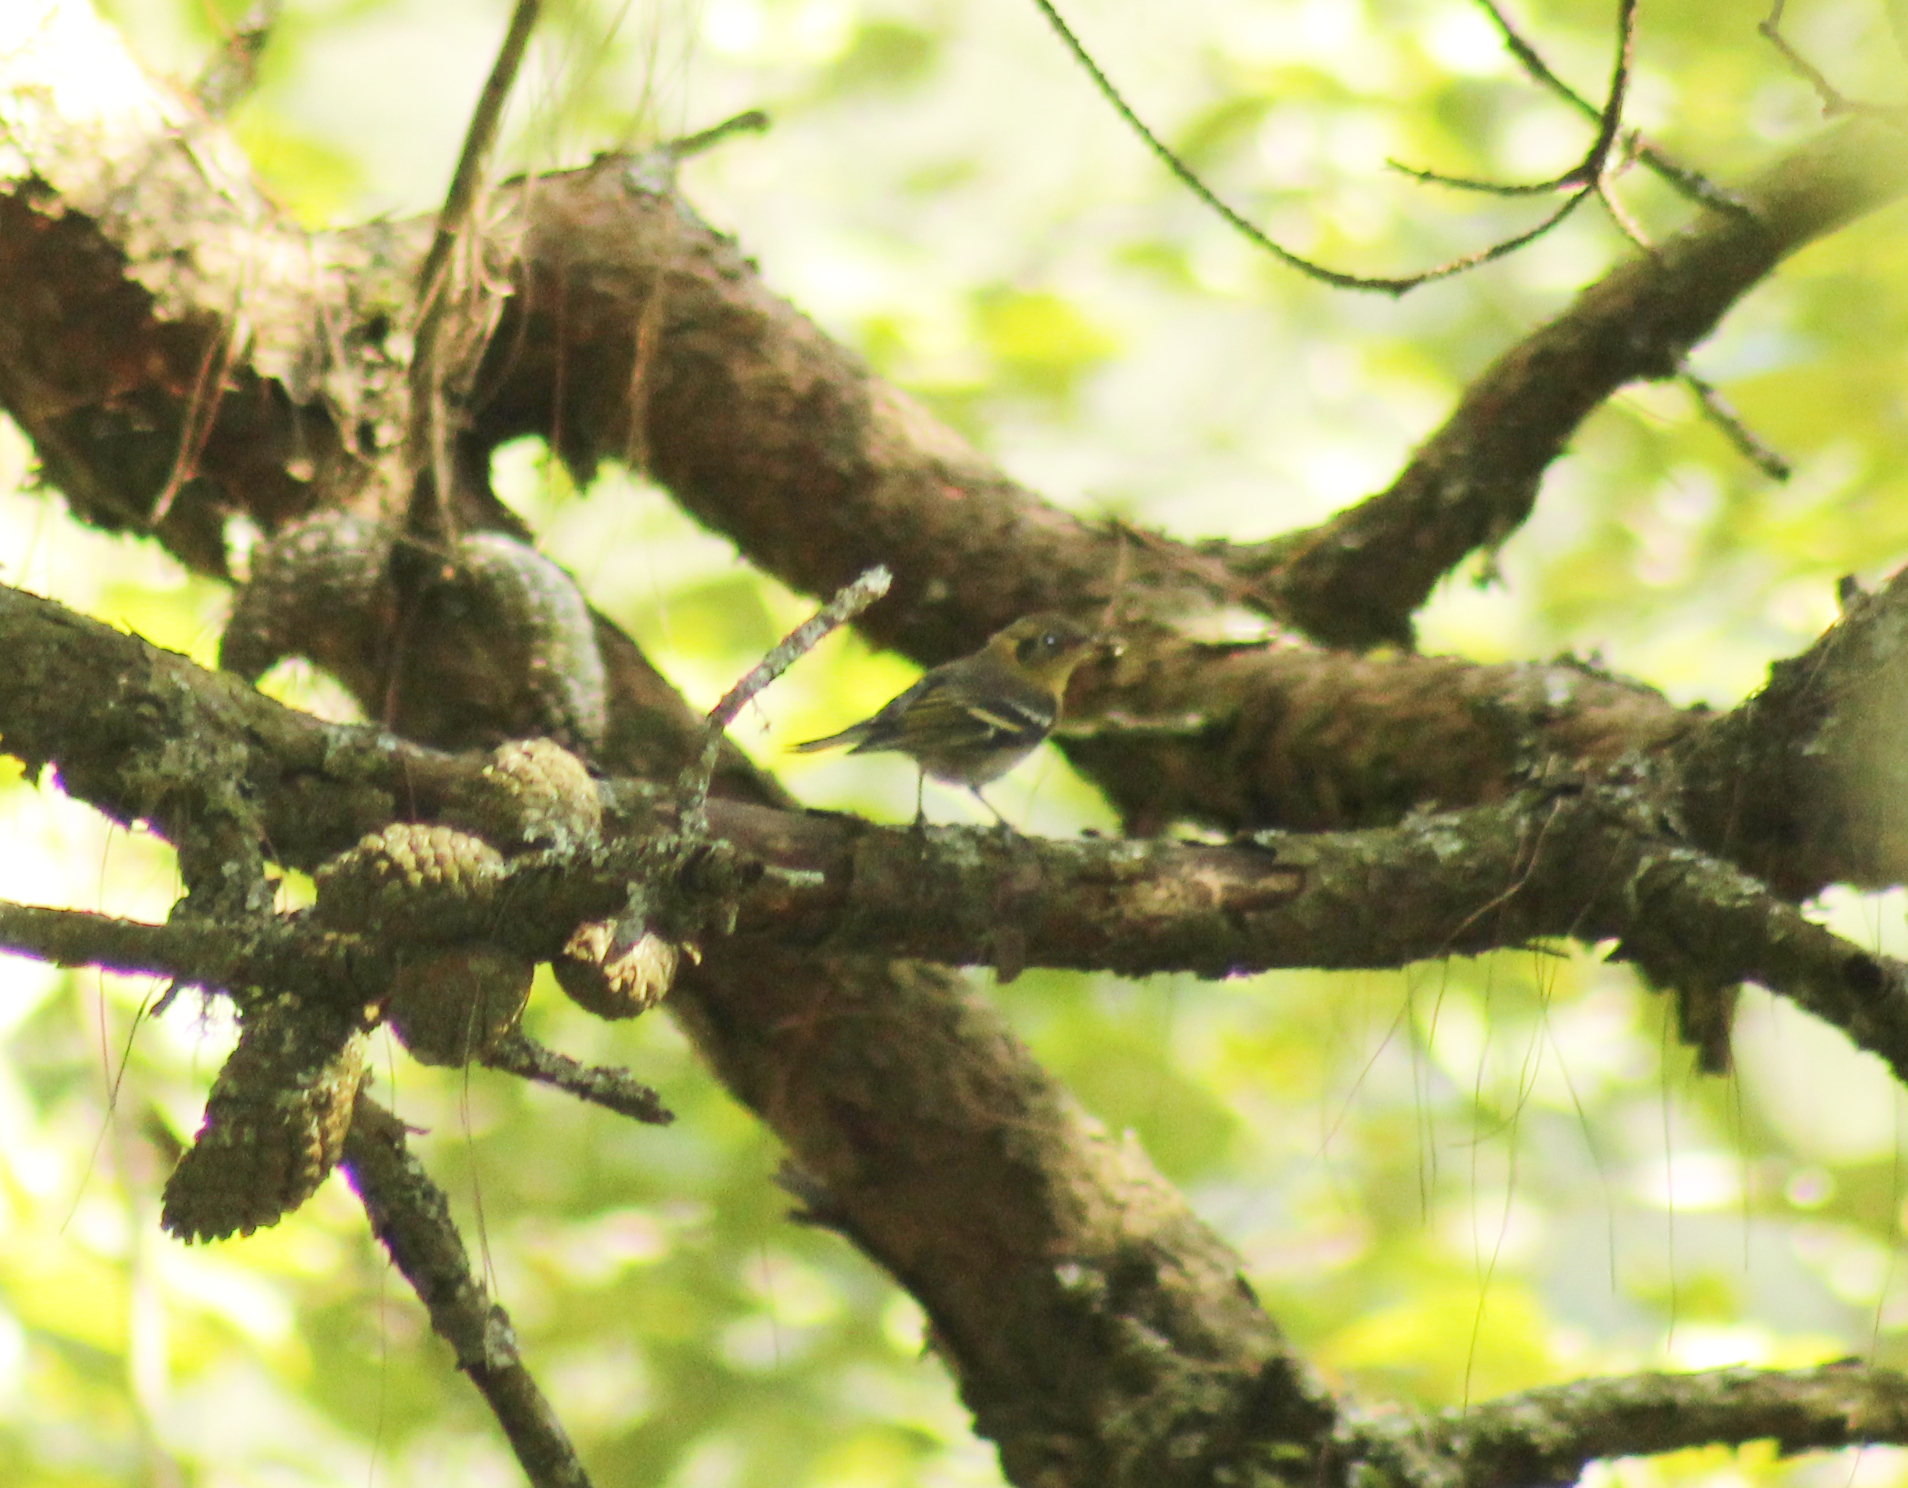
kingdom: Animalia
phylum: Chordata
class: Aves
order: Passeriformes
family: Peucedramidae
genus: Peucedramus
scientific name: Peucedramus taeniatus
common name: Olive warbler
